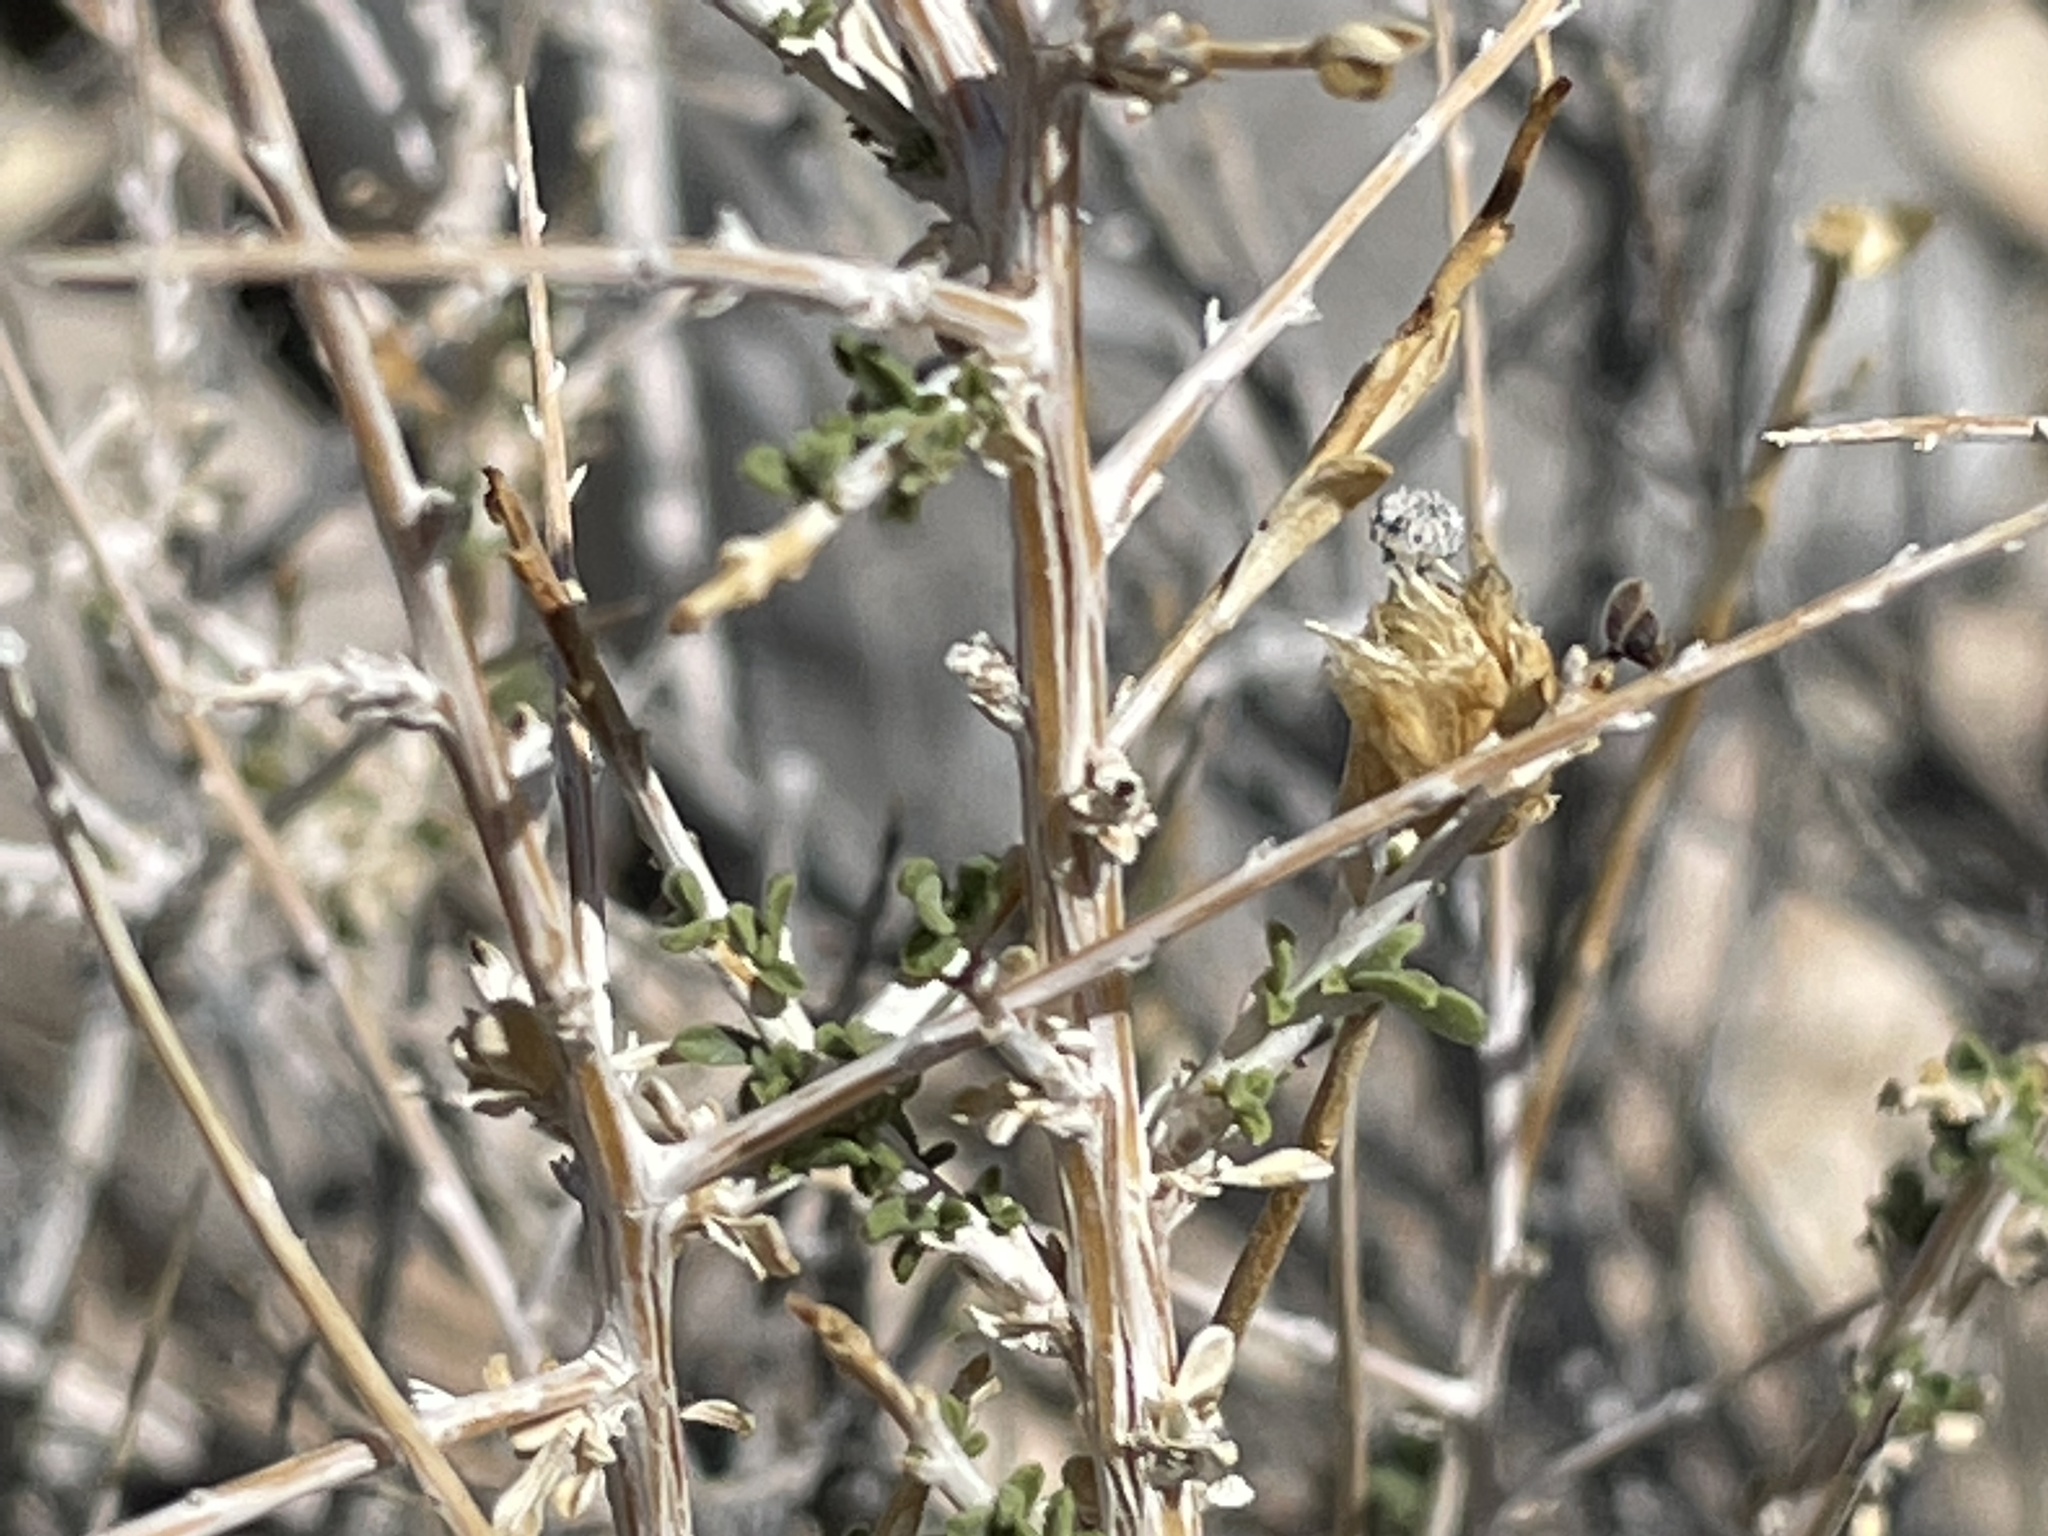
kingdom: Plantae
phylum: Tracheophyta
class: Magnoliopsida
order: Asterales
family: Asteraceae
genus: Acamptopappus
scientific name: Acamptopappus sphaerocephalus
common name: Goldenhead
